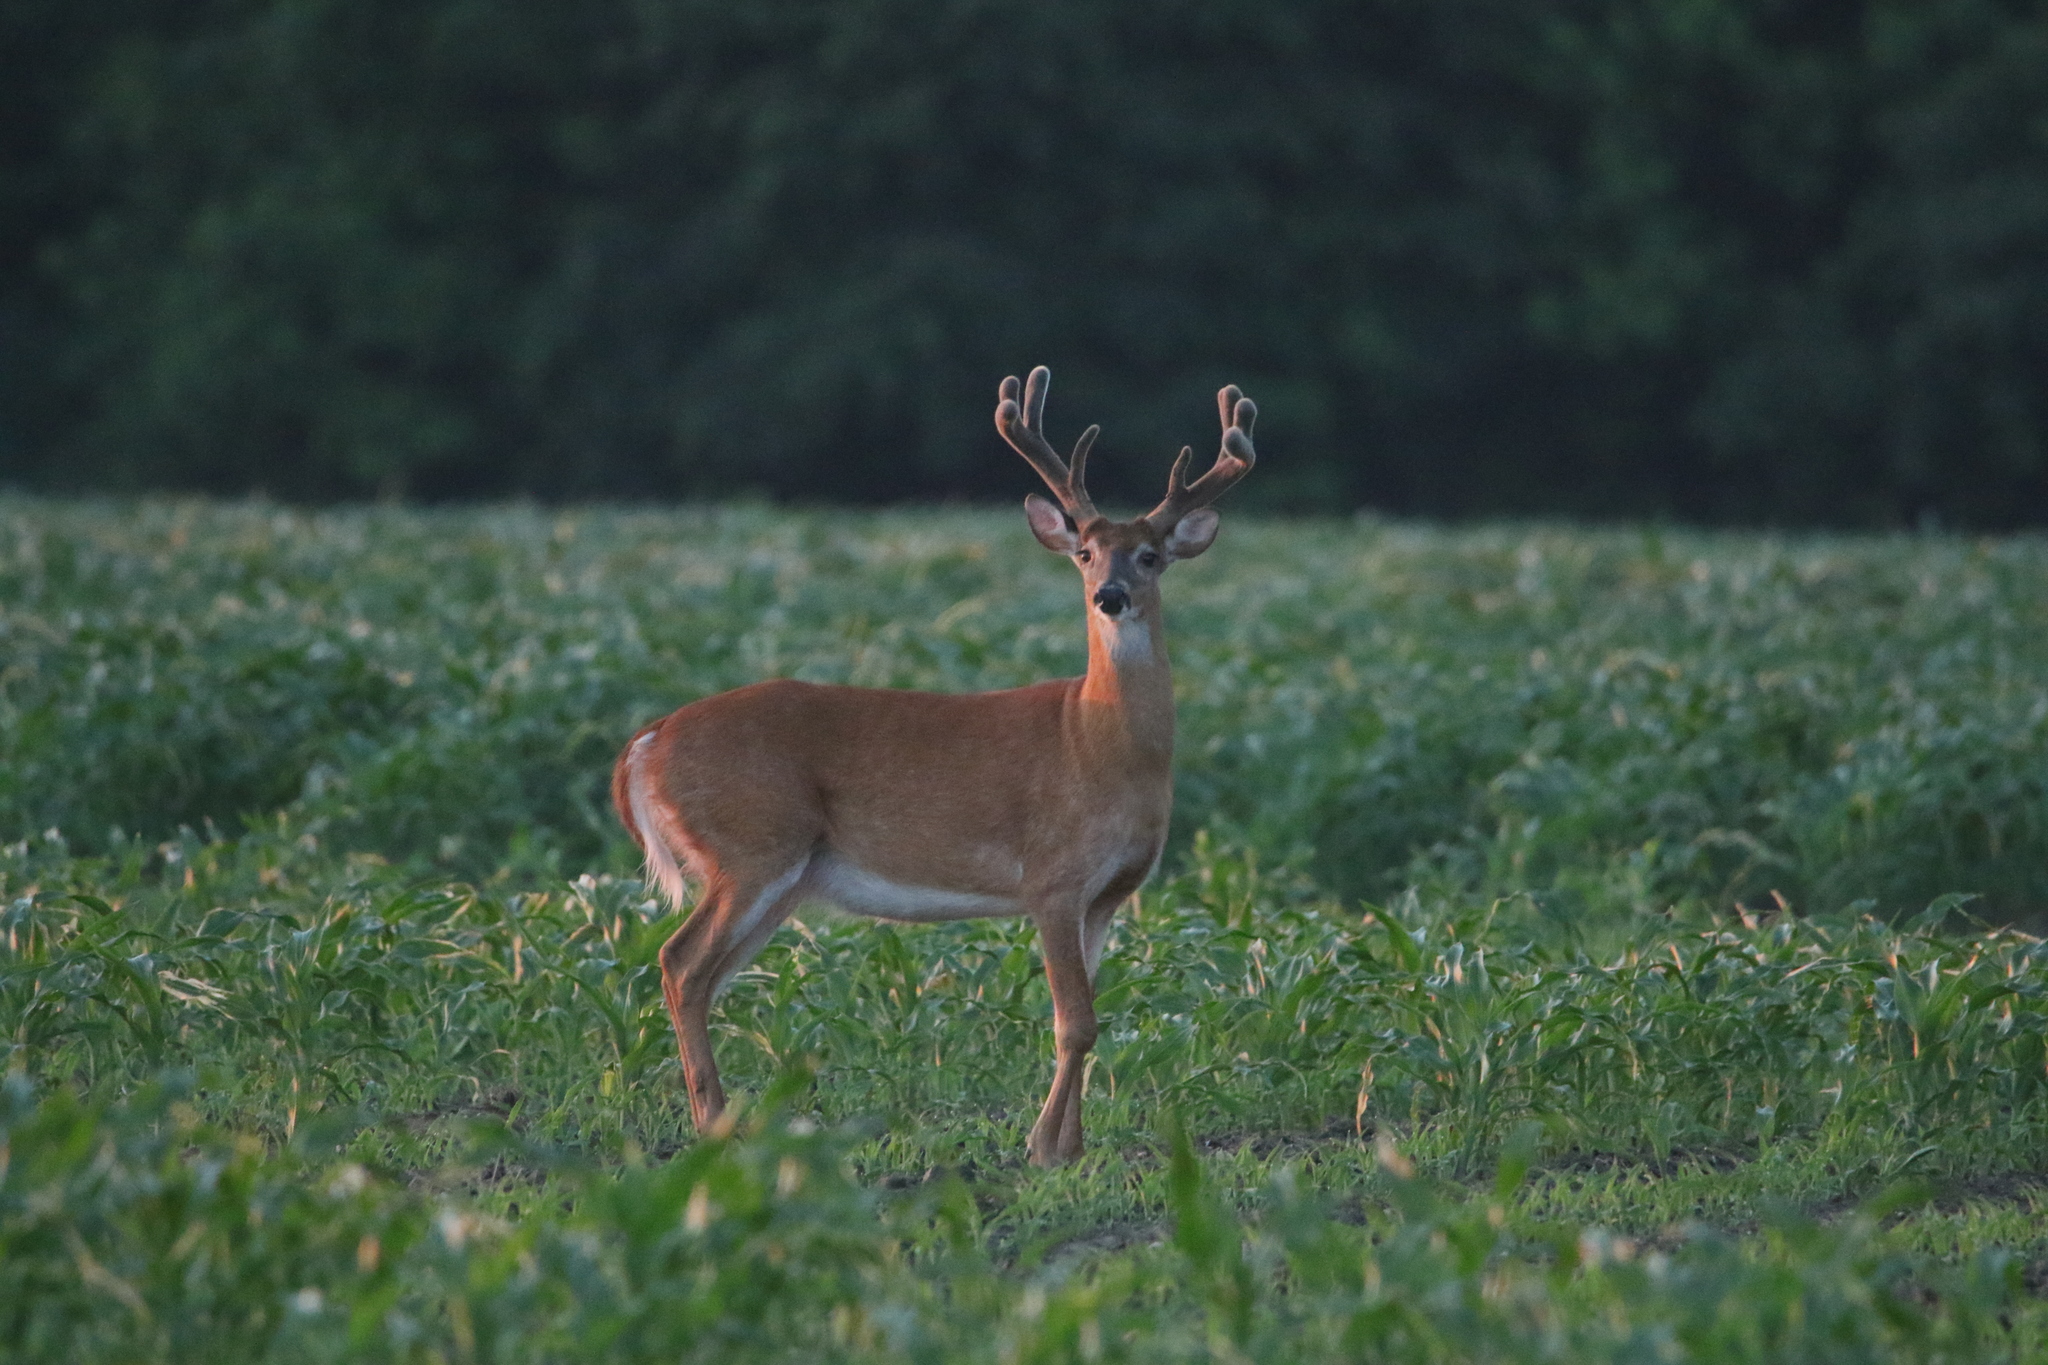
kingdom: Animalia
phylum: Chordata
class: Mammalia
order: Artiodactyla
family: Cervidae
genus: Odocoileus
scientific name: Odocoileus virginianus
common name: White-tailed deer
